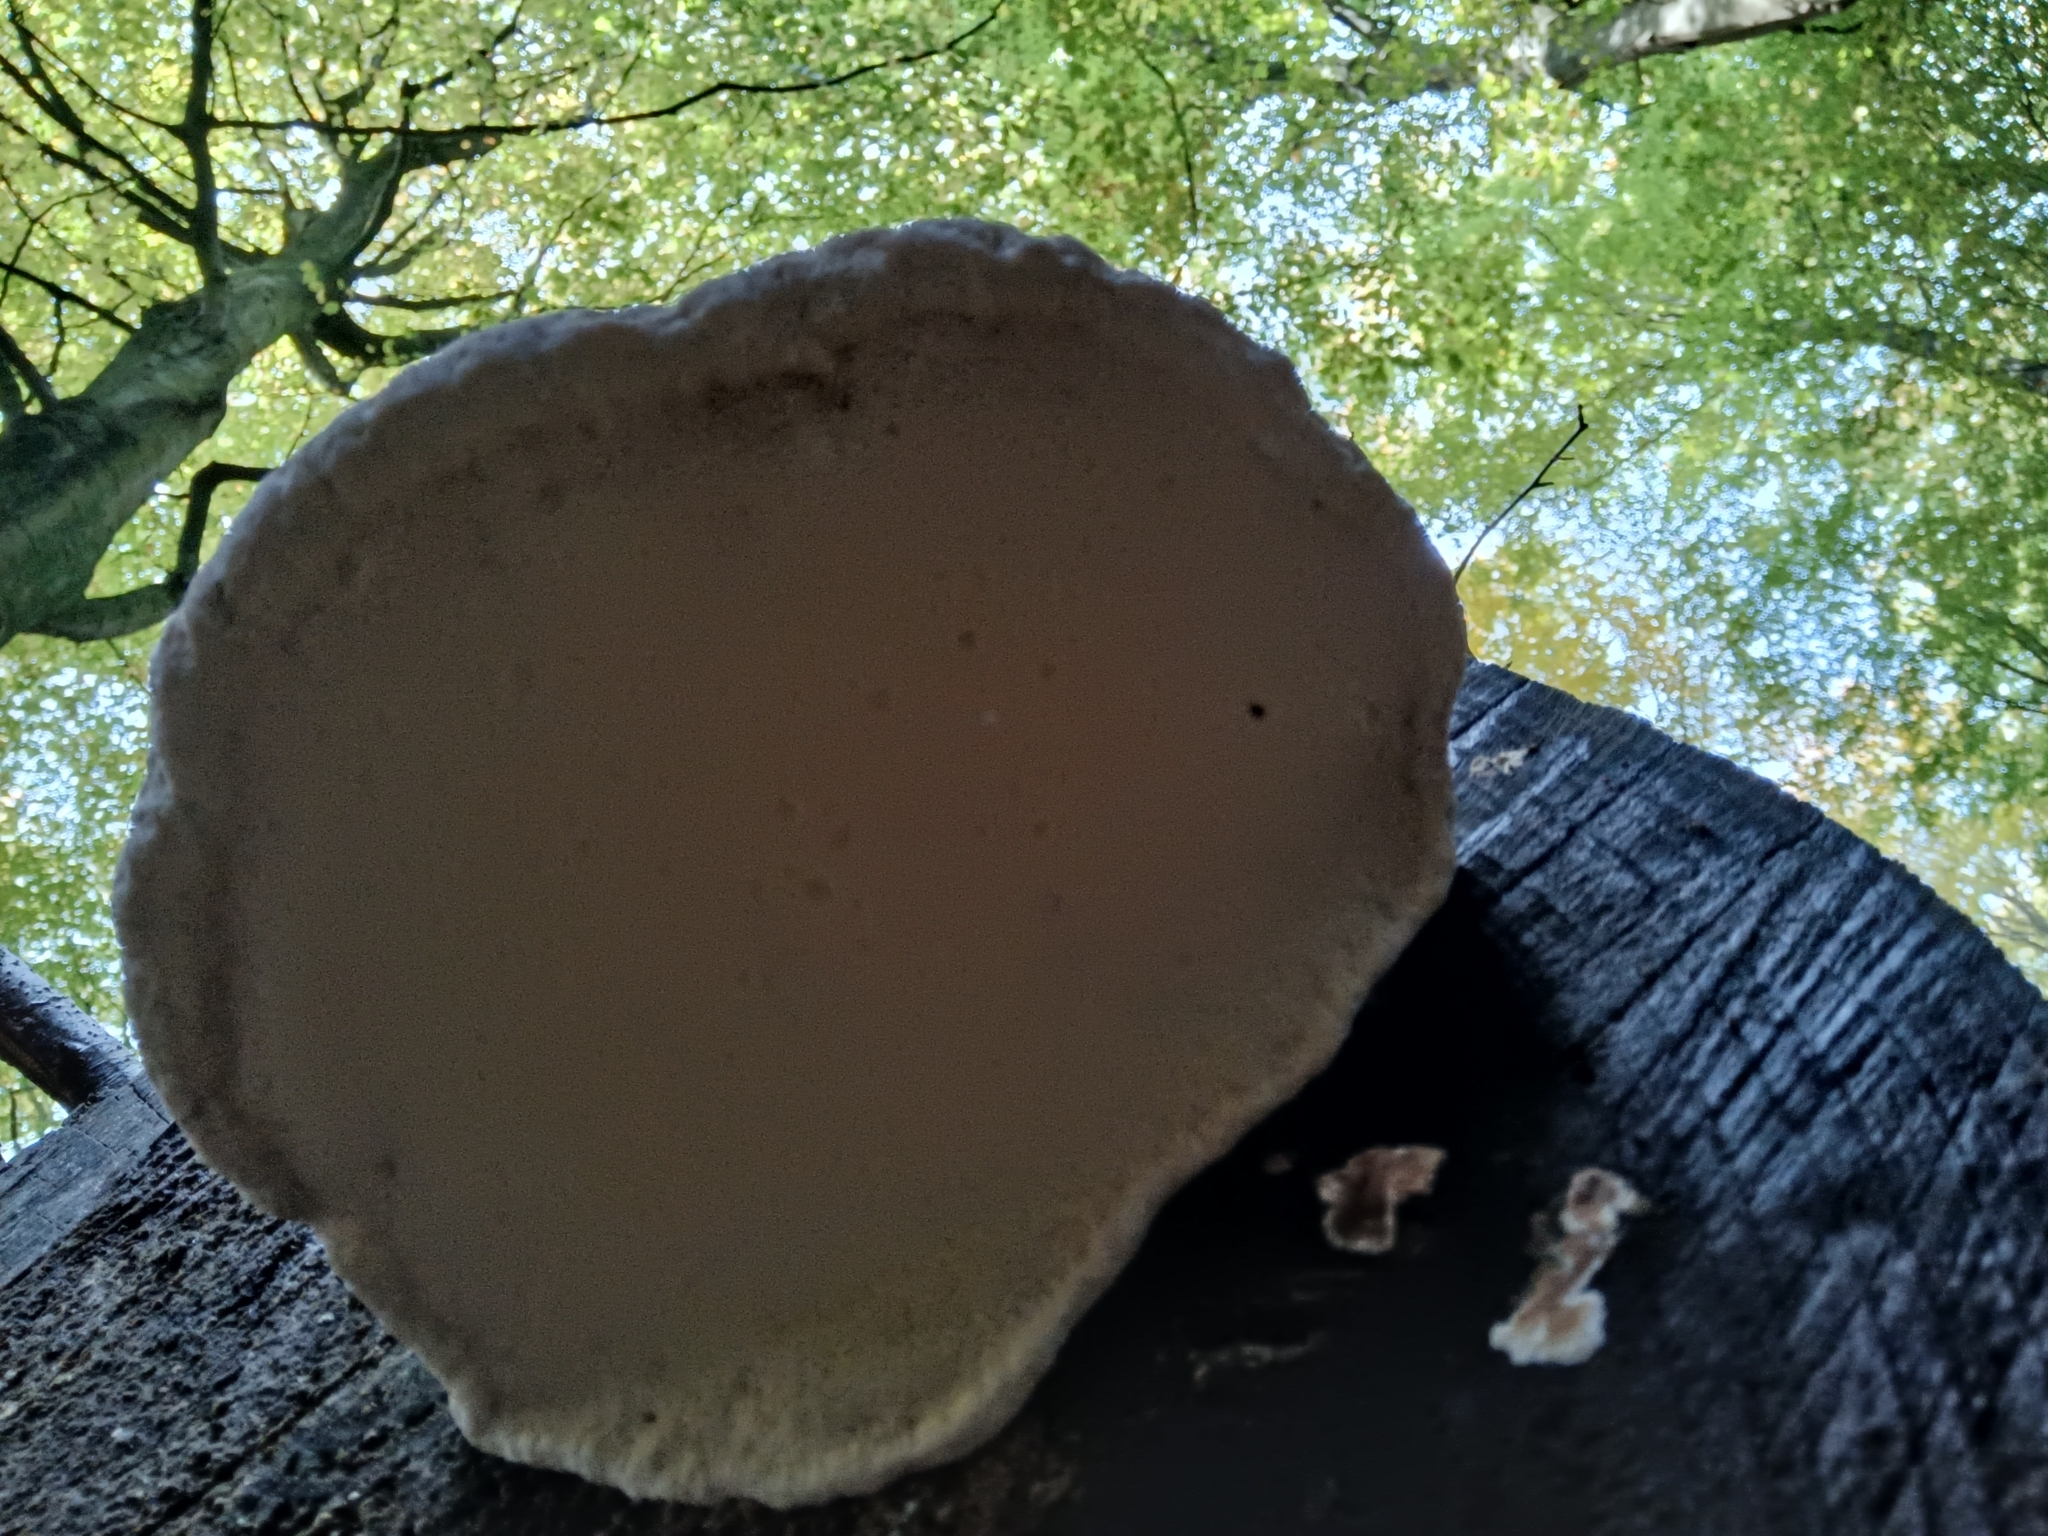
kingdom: Fungi
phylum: Basidiomycota
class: Agaricomycetes
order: Polyporales
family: Fomitopsidaceae
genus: Fomitopsis
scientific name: Fomitopsis pinicola
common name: Red-belted bracket
